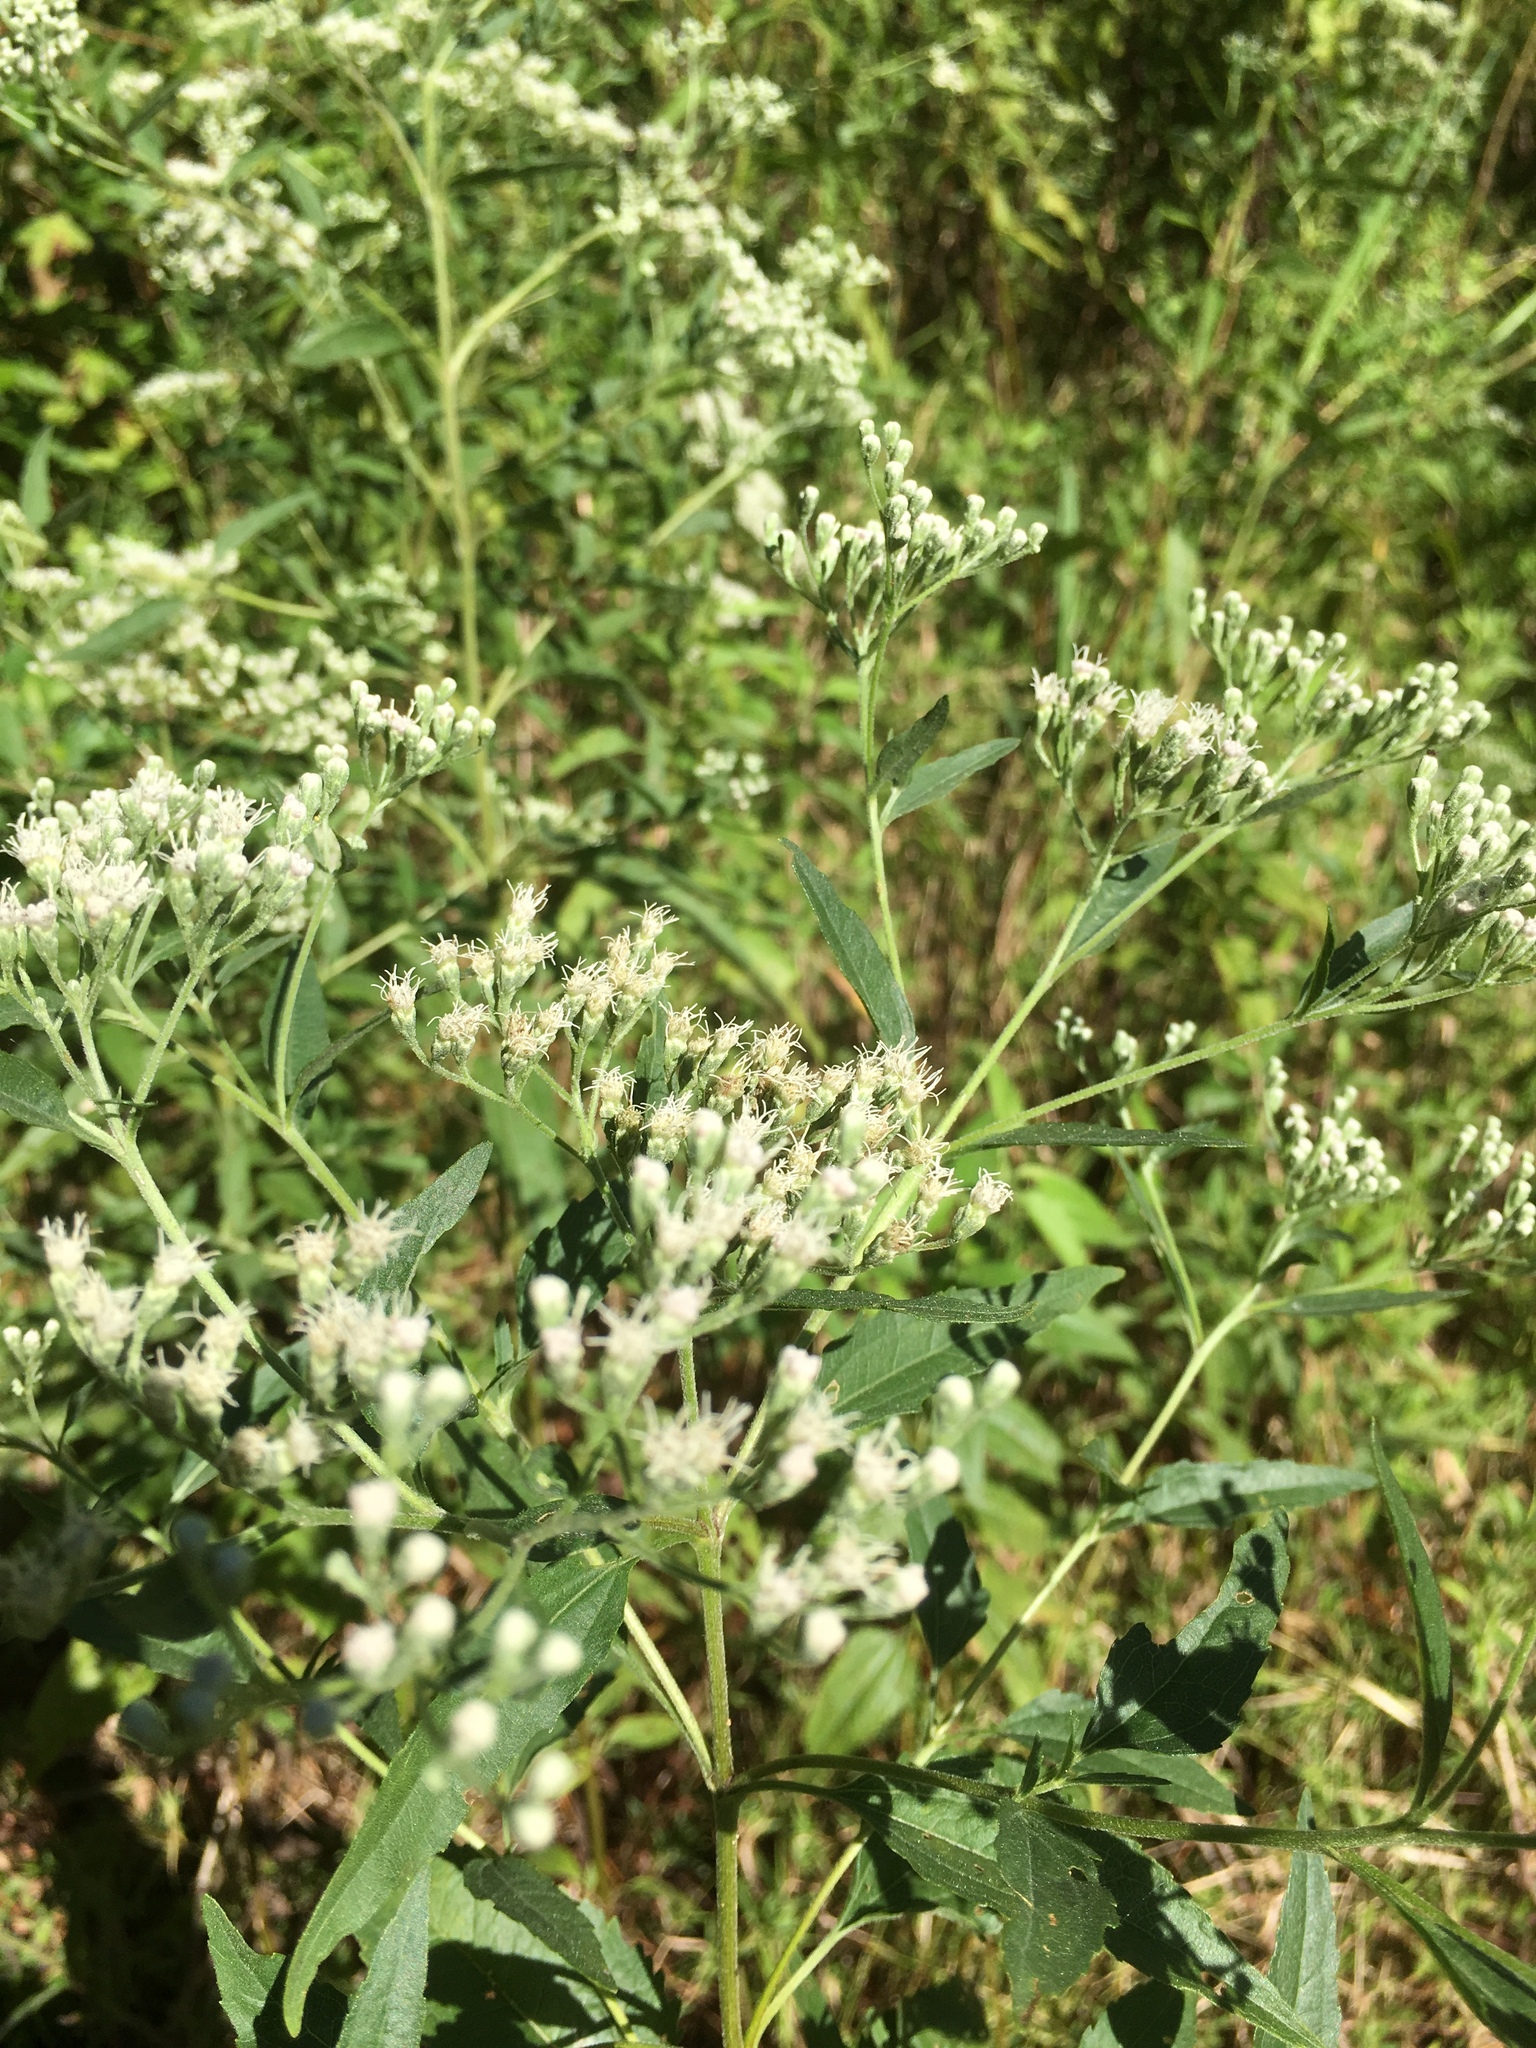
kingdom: Plantae
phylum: Tracheophyta
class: Magnoliopsida
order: Asterales
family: Asteraceae
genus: Eupatorium
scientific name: Eupatorium serotinum
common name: Late boneset
